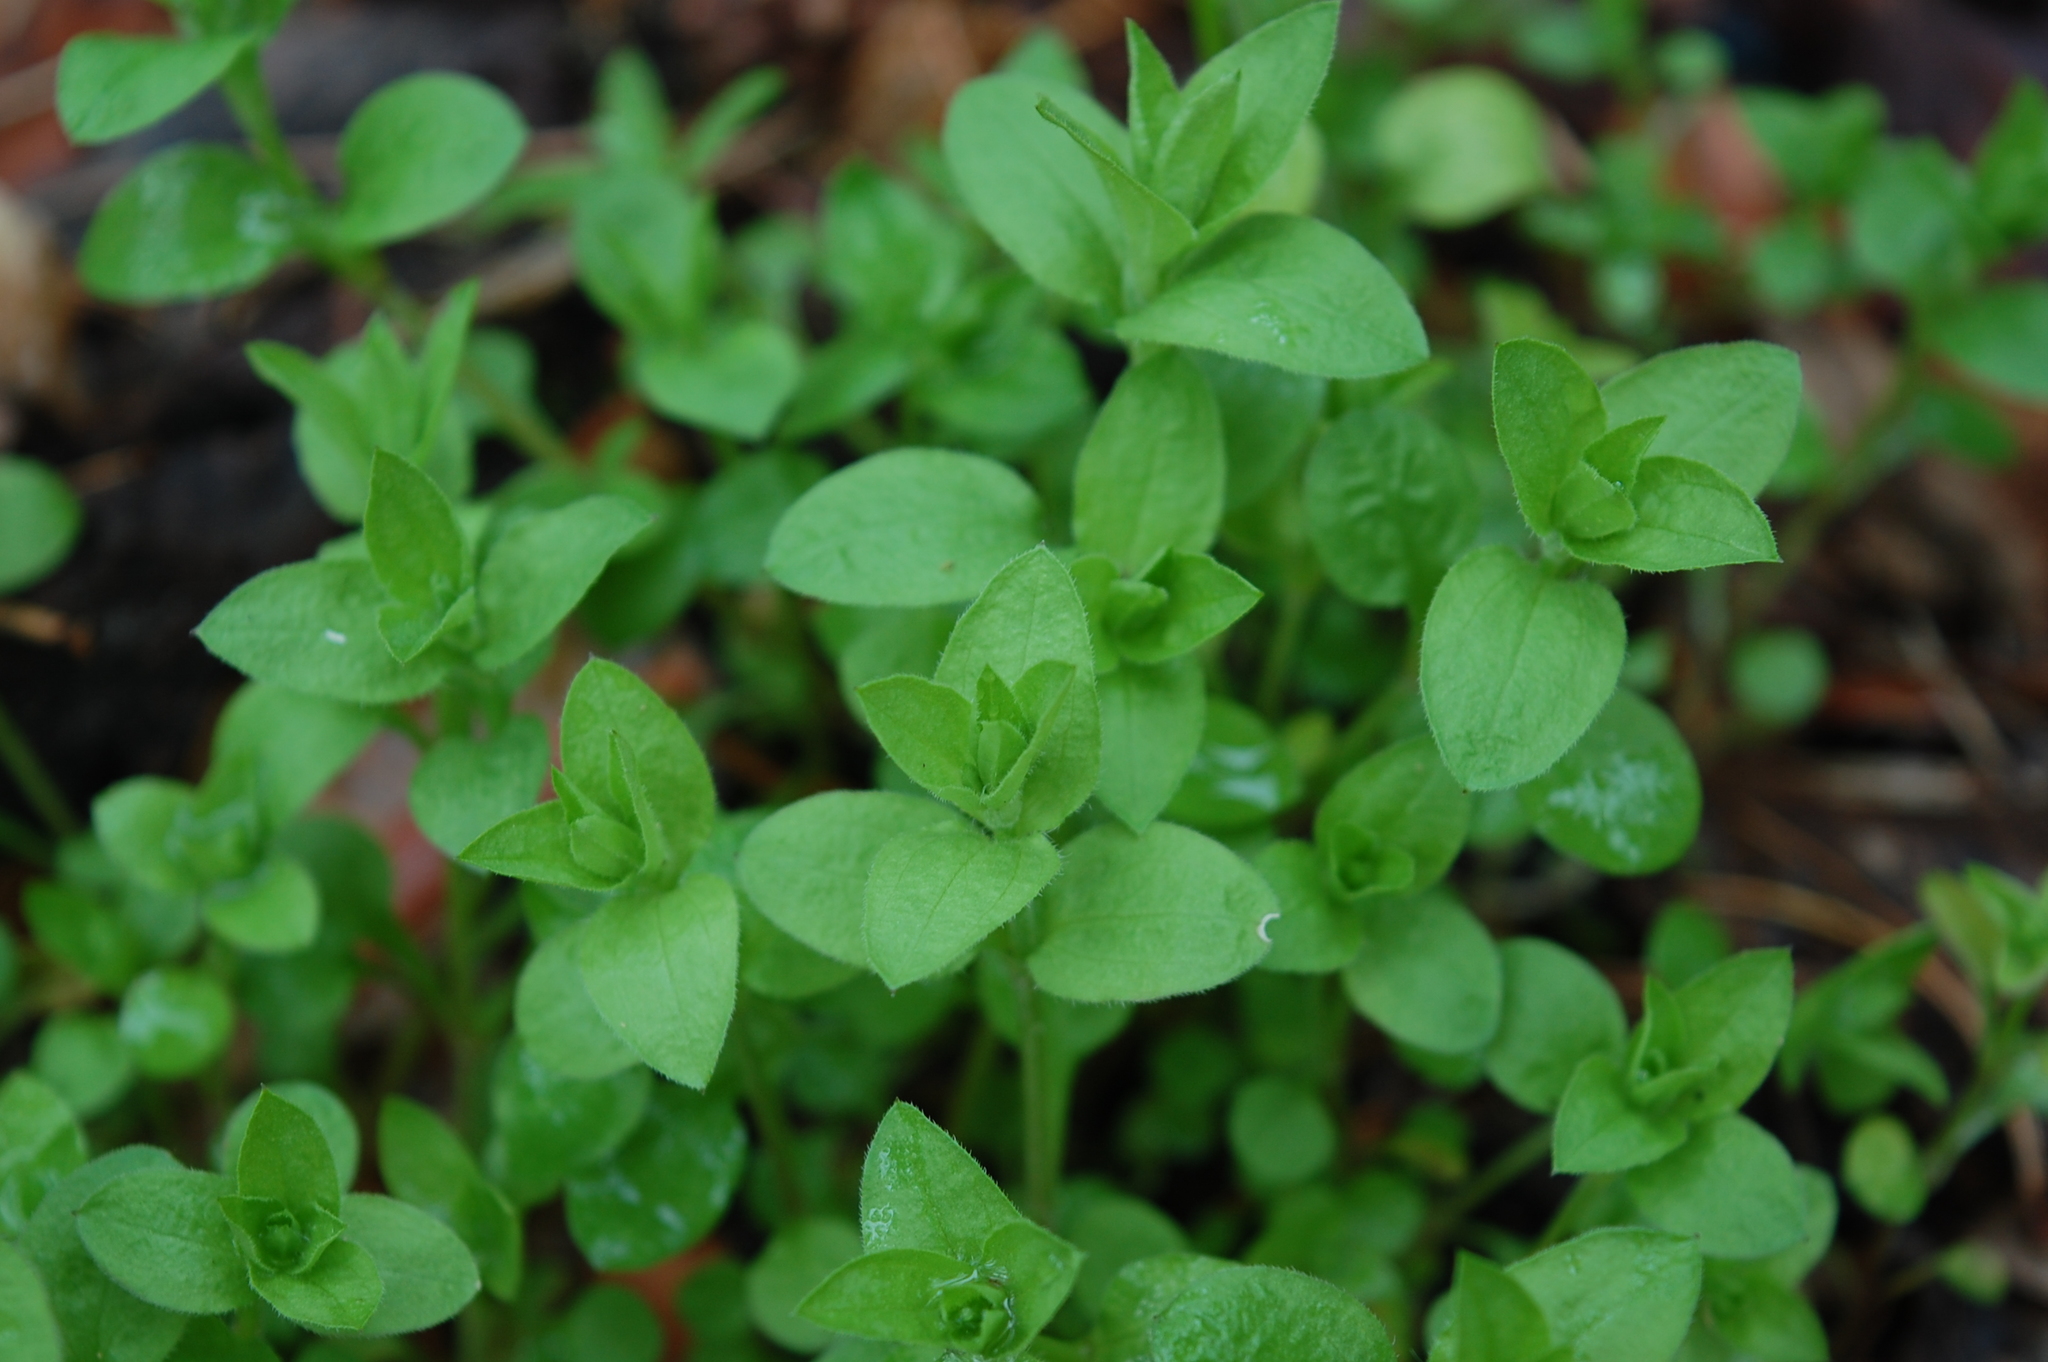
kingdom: Plantae
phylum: Tracheophyta
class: Magnoliopsida
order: Caryophyllales
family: Caryophyllaceae
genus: Moehringia
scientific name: Moehringia trinervia
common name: Three-nerved sandwort
